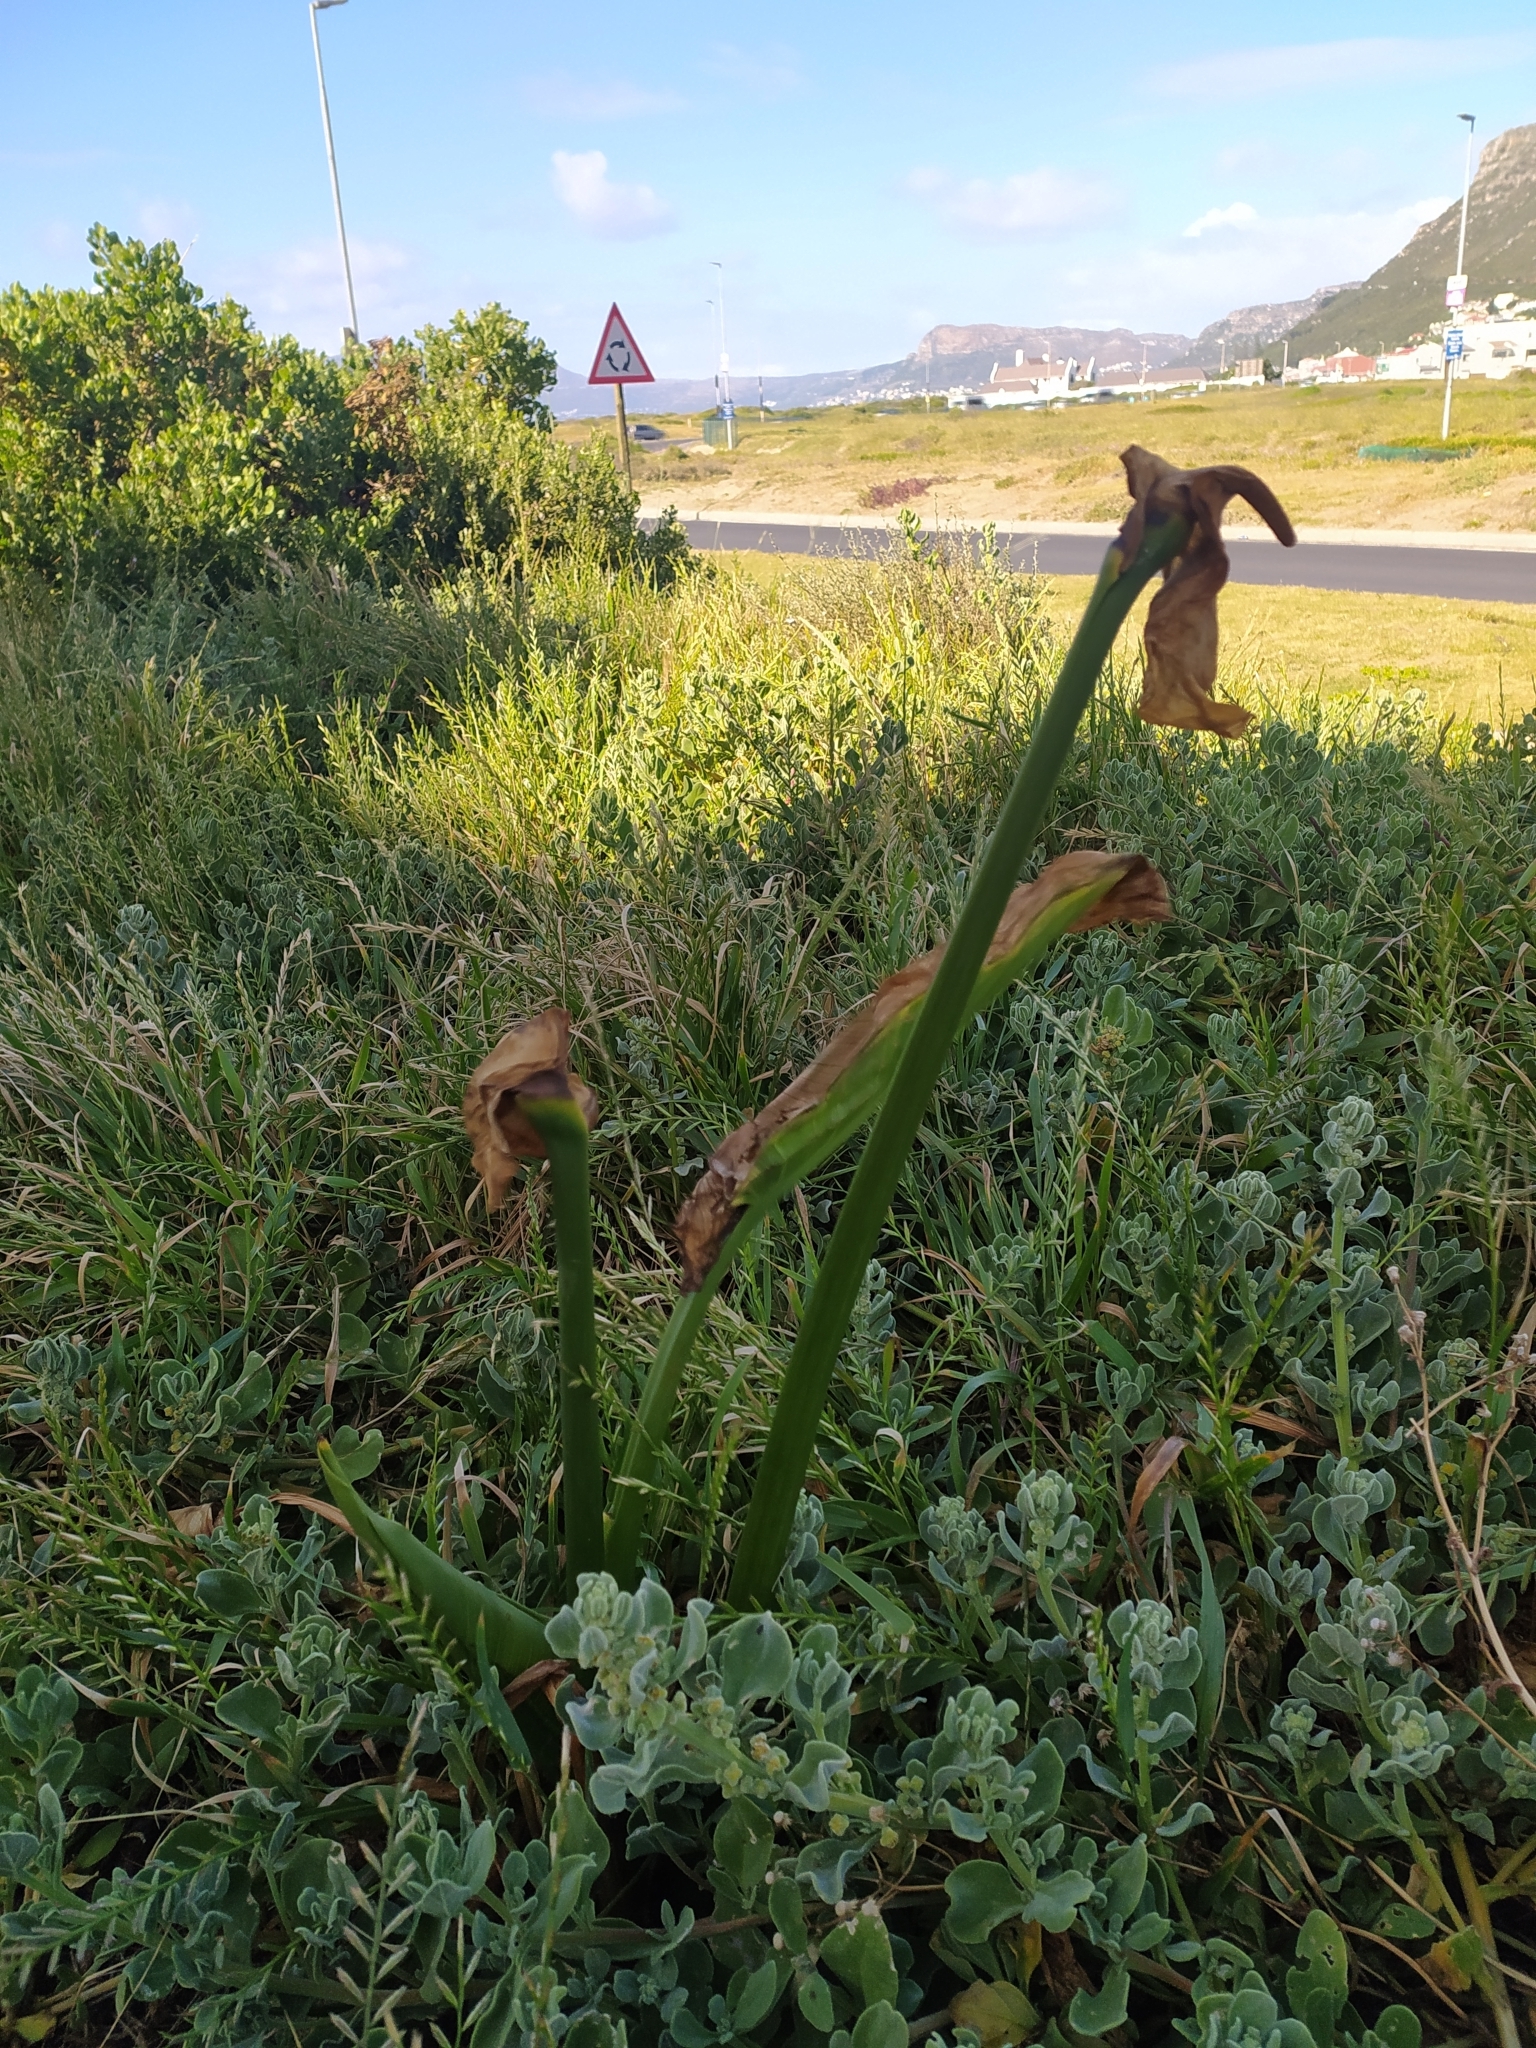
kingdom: Plantae
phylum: Tracheophyta
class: Liliopsida
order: Alismatales
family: Araceae
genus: Zantedeschia
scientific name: Zantedeschia aethiopica
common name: Altar-lily
